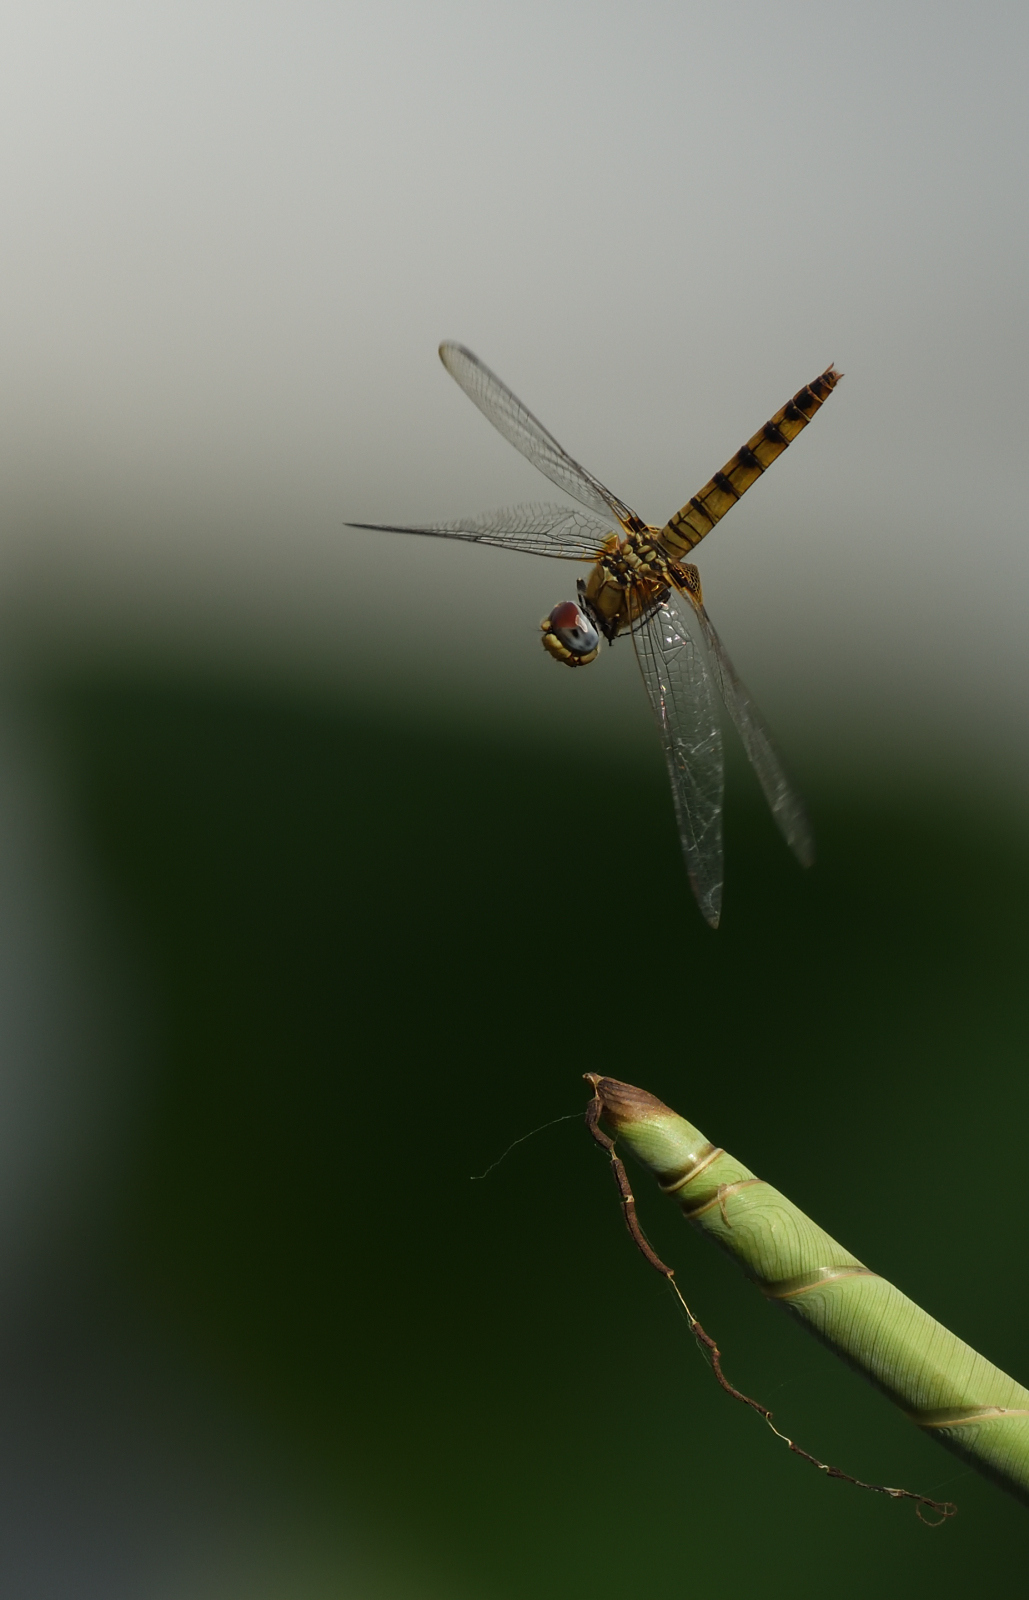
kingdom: Animalia
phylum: Arthropoda
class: Insecta
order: Odonata
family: Libellulidae
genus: Urothemis
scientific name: Urothemis signata
